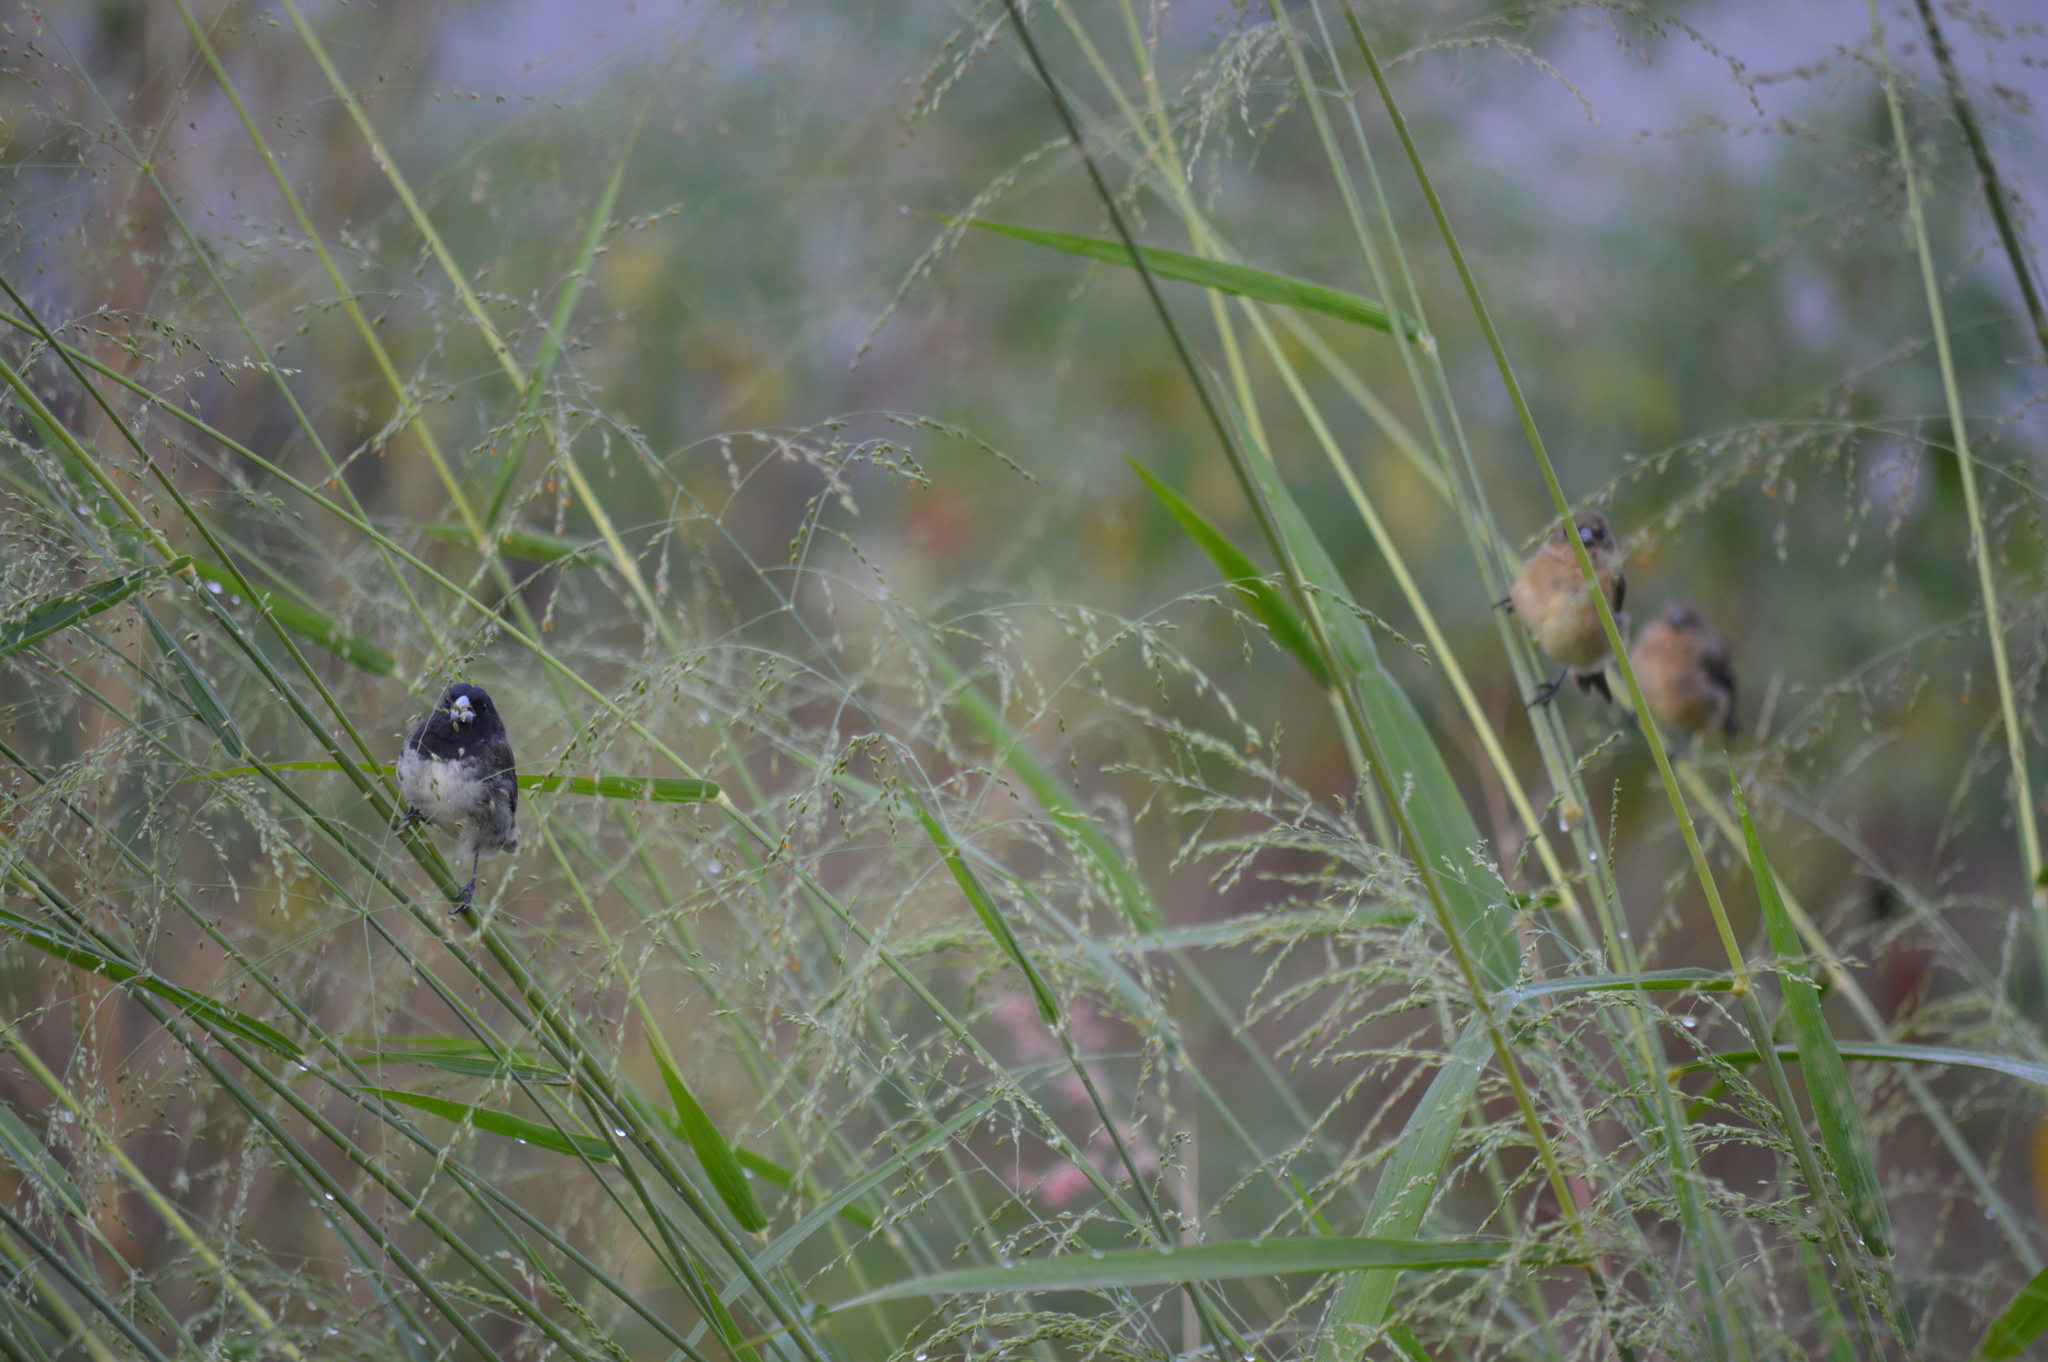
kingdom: Animalia
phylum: Chordata
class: Aves
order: Passeriformes
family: Thraupidae
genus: Sporophila
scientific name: Sporophila nigricollis
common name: Yellow-bellied seedeater
